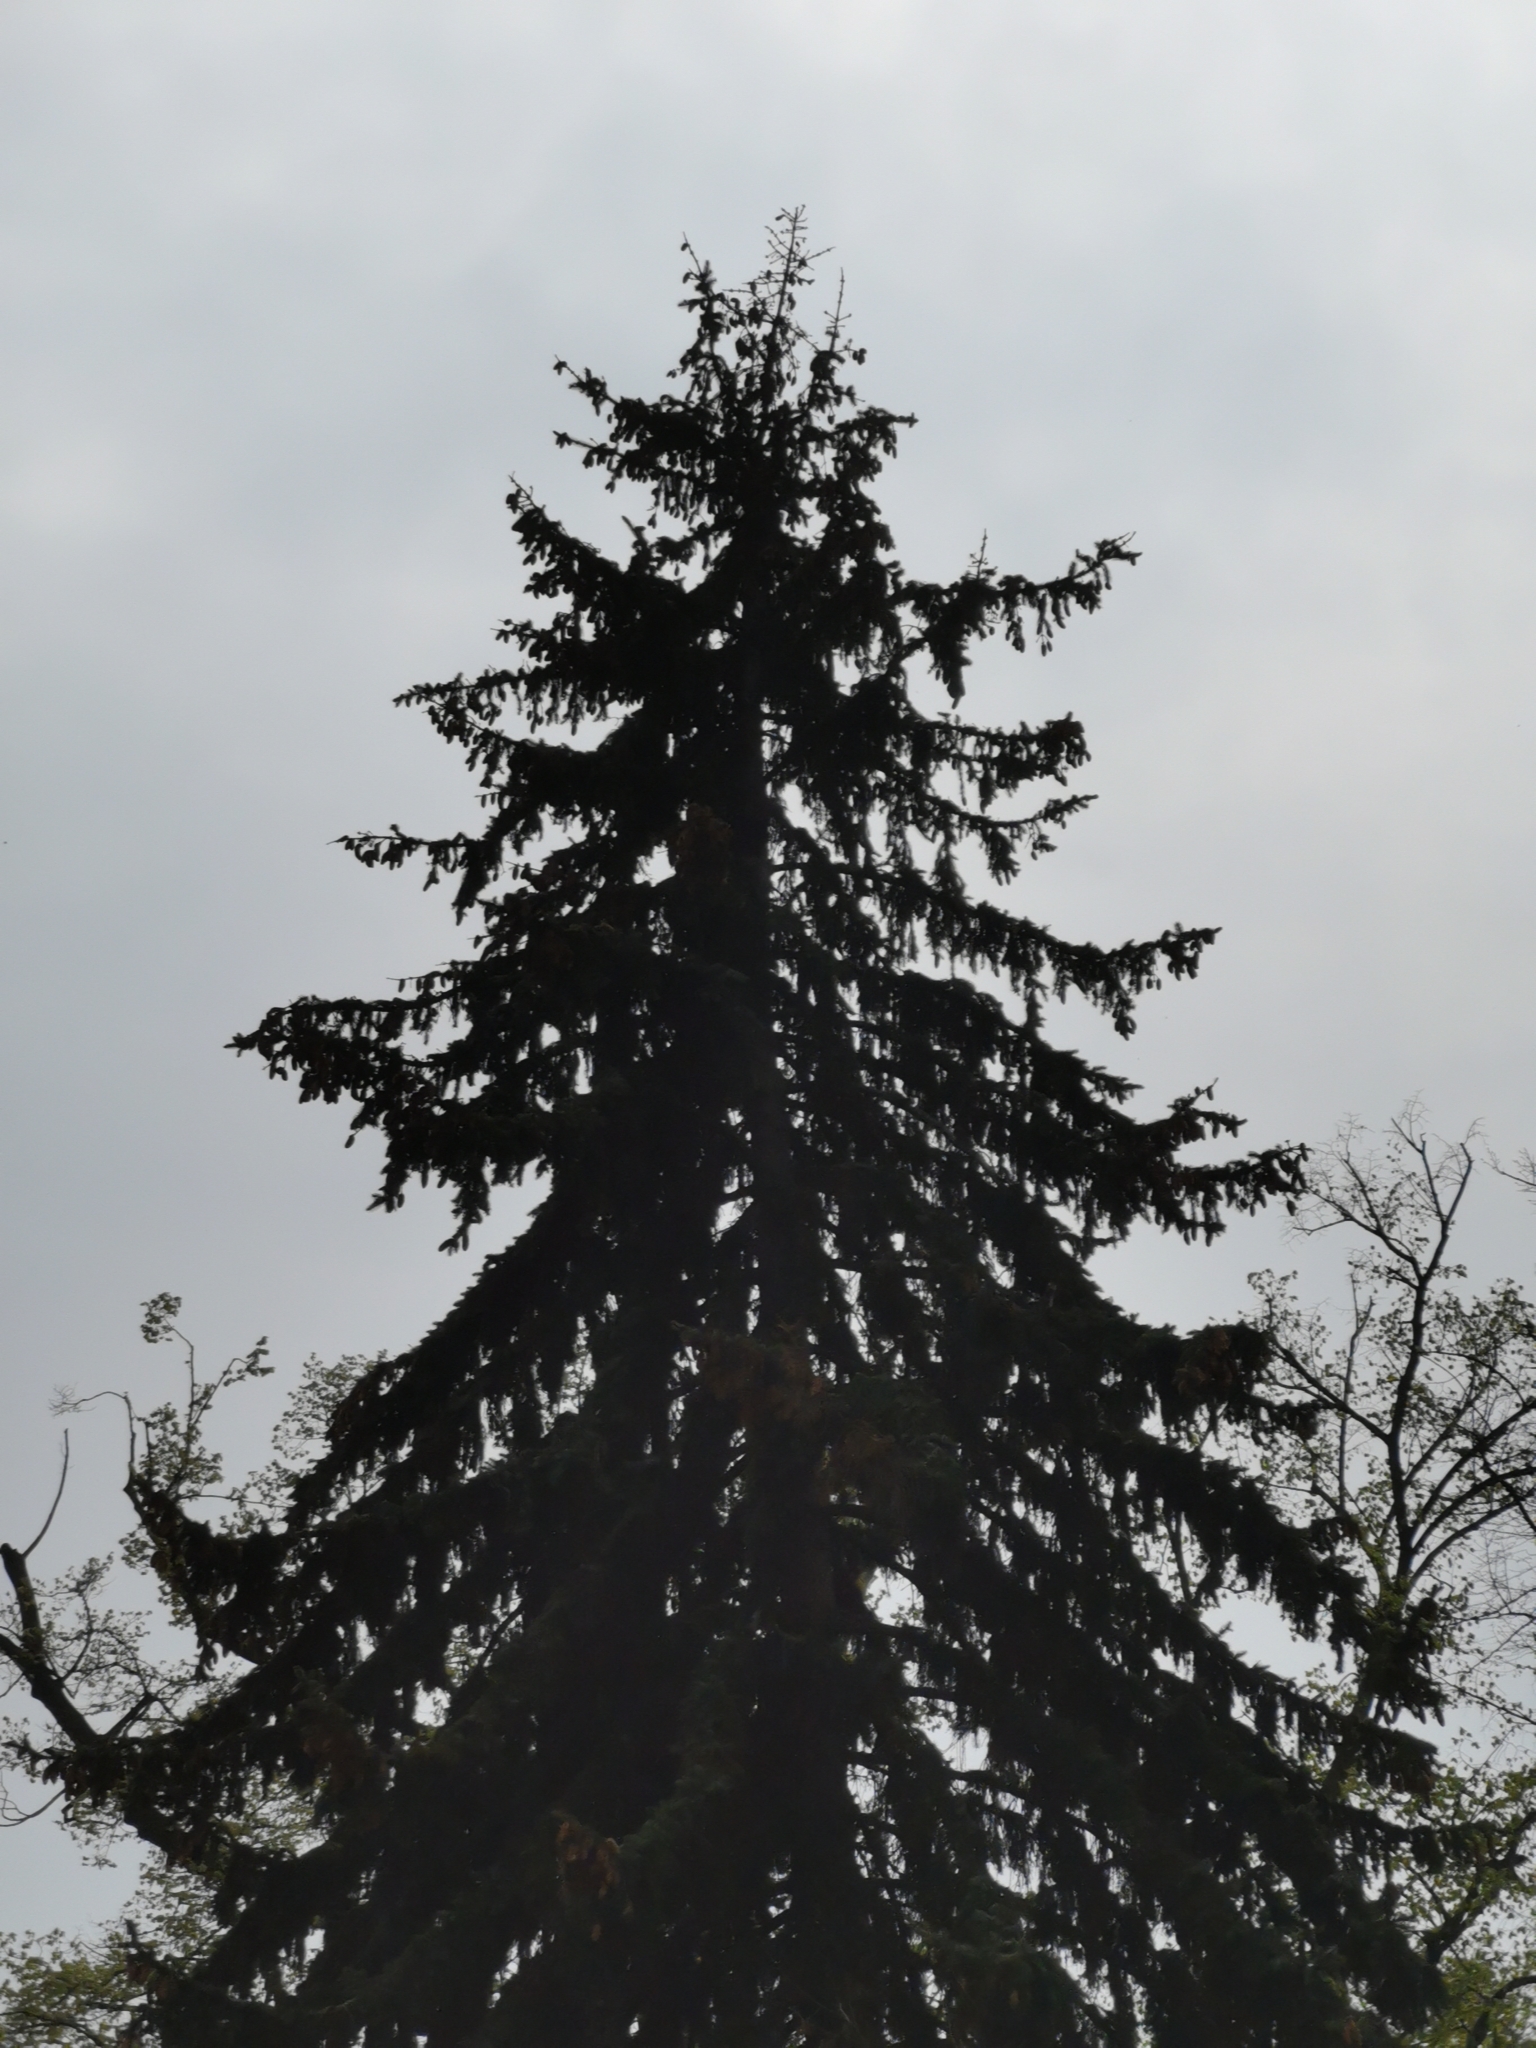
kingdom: Plantae
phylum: Tracheophyta
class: Pinopsida
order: Pinales
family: Pinaceae
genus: Picea
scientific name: Picea abies
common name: Norway spruce
